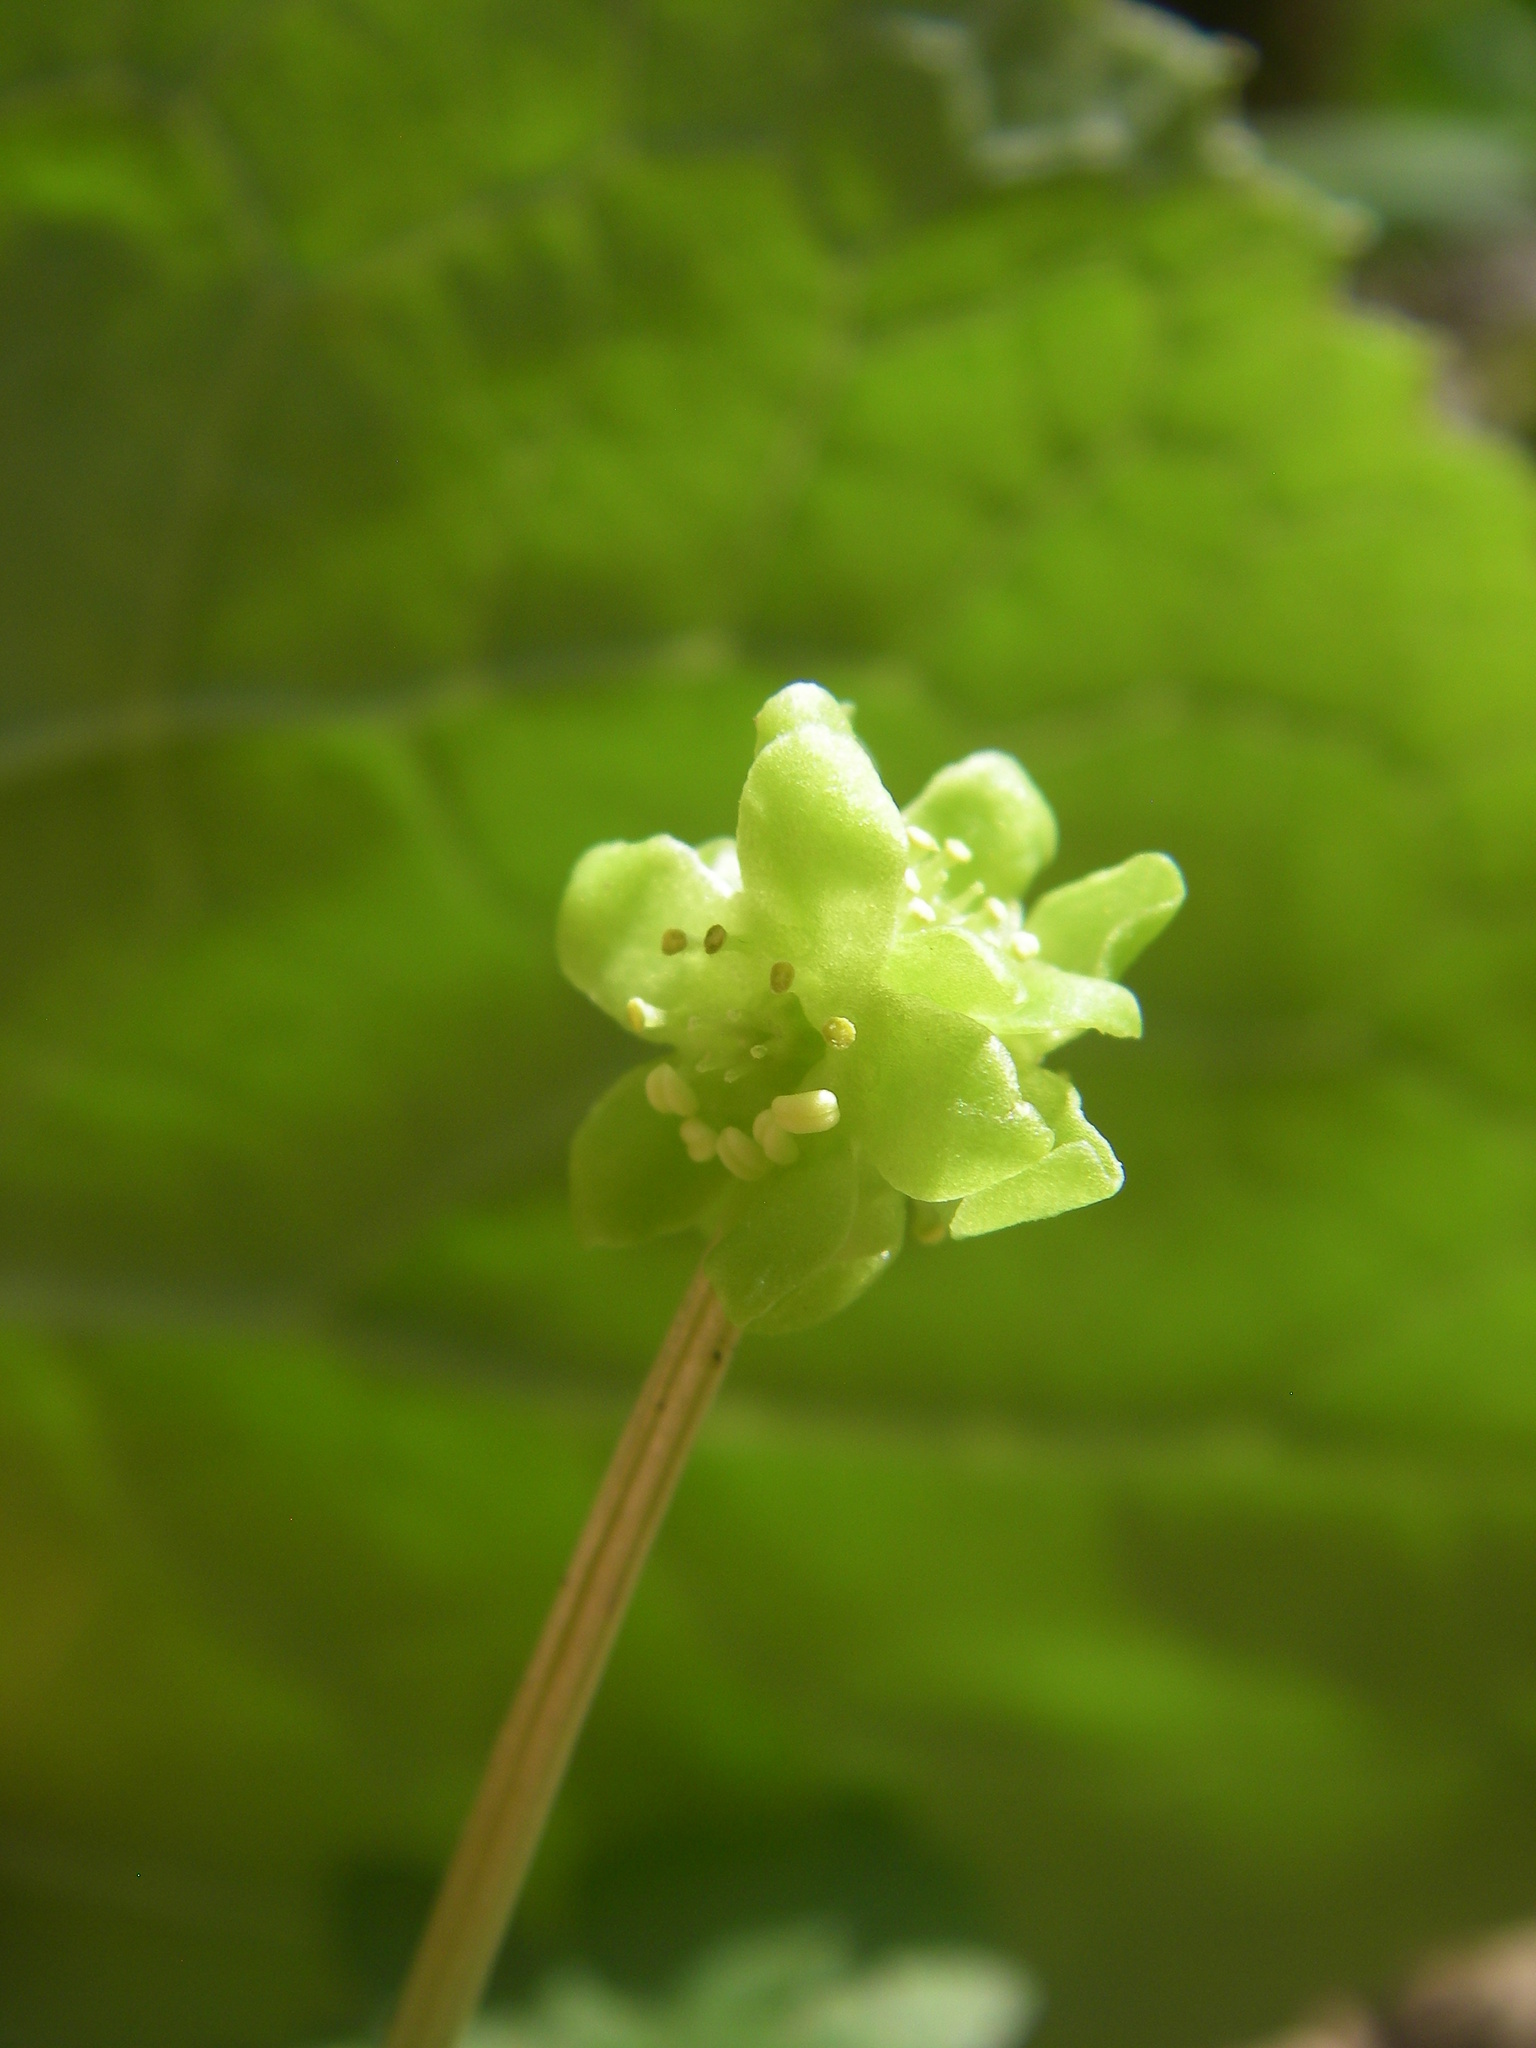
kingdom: Plantae
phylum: Tracheophyta
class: Magnoliopsida
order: Dipsacales
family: Viburnaceae
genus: Adoxa
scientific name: Adoxa moschatellina
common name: Moschatel
